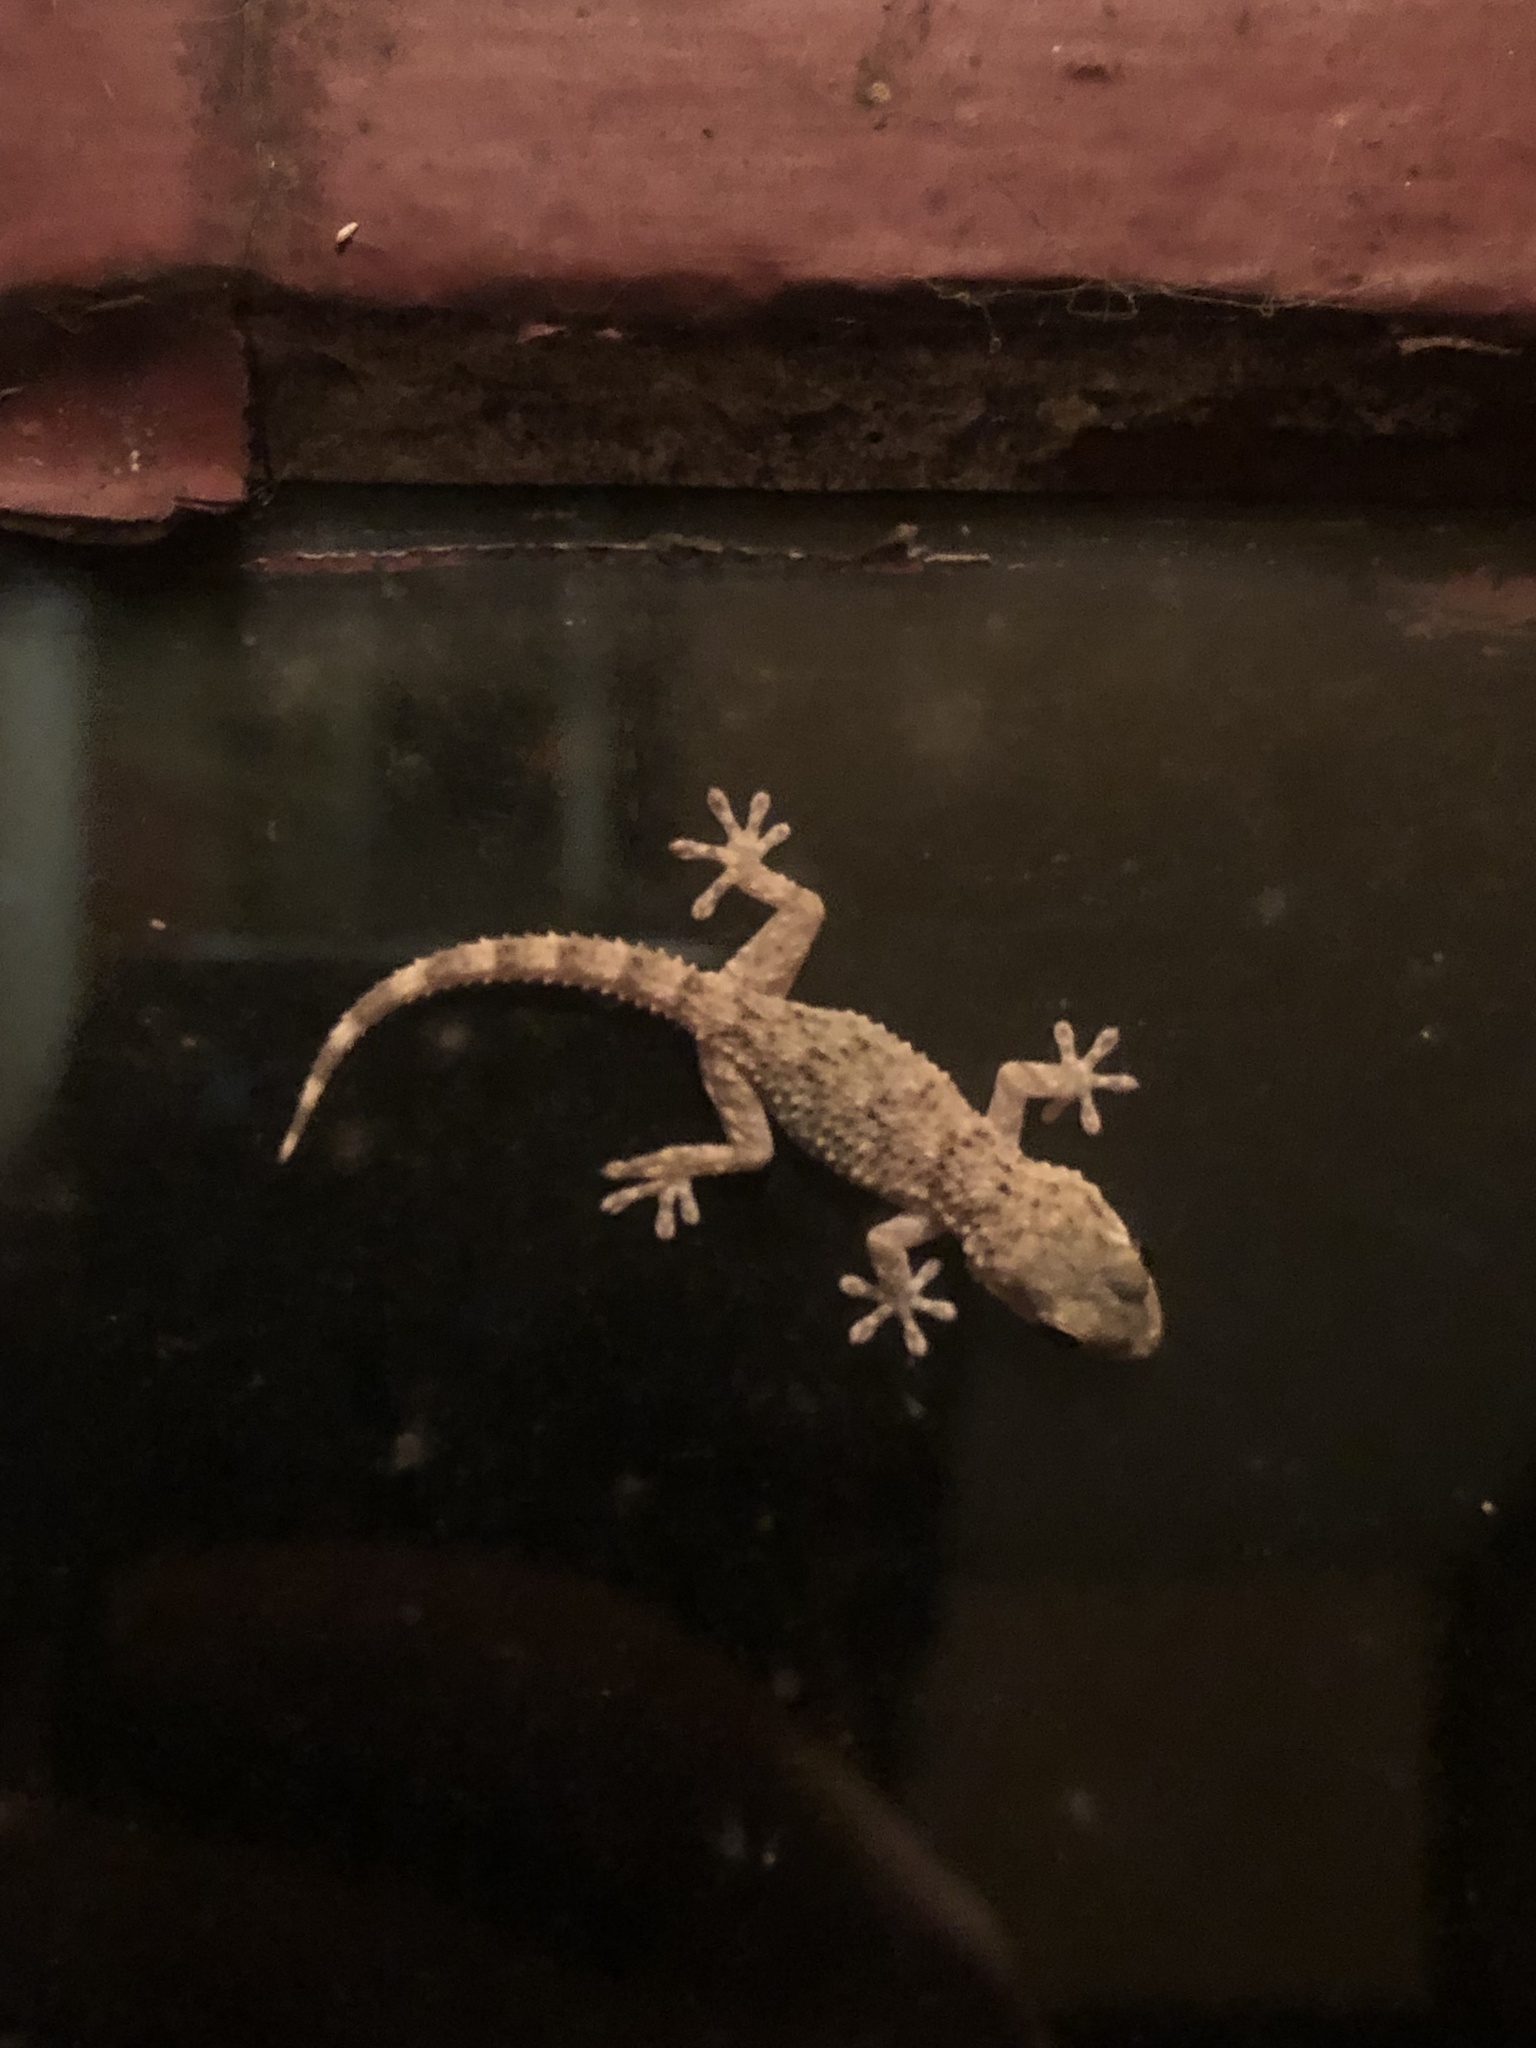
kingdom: Animalia
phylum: Chordata
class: Squamata
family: Phyllodactylidae
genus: Tarentola
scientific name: Tarentola mauritanica
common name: Moorish gecko
